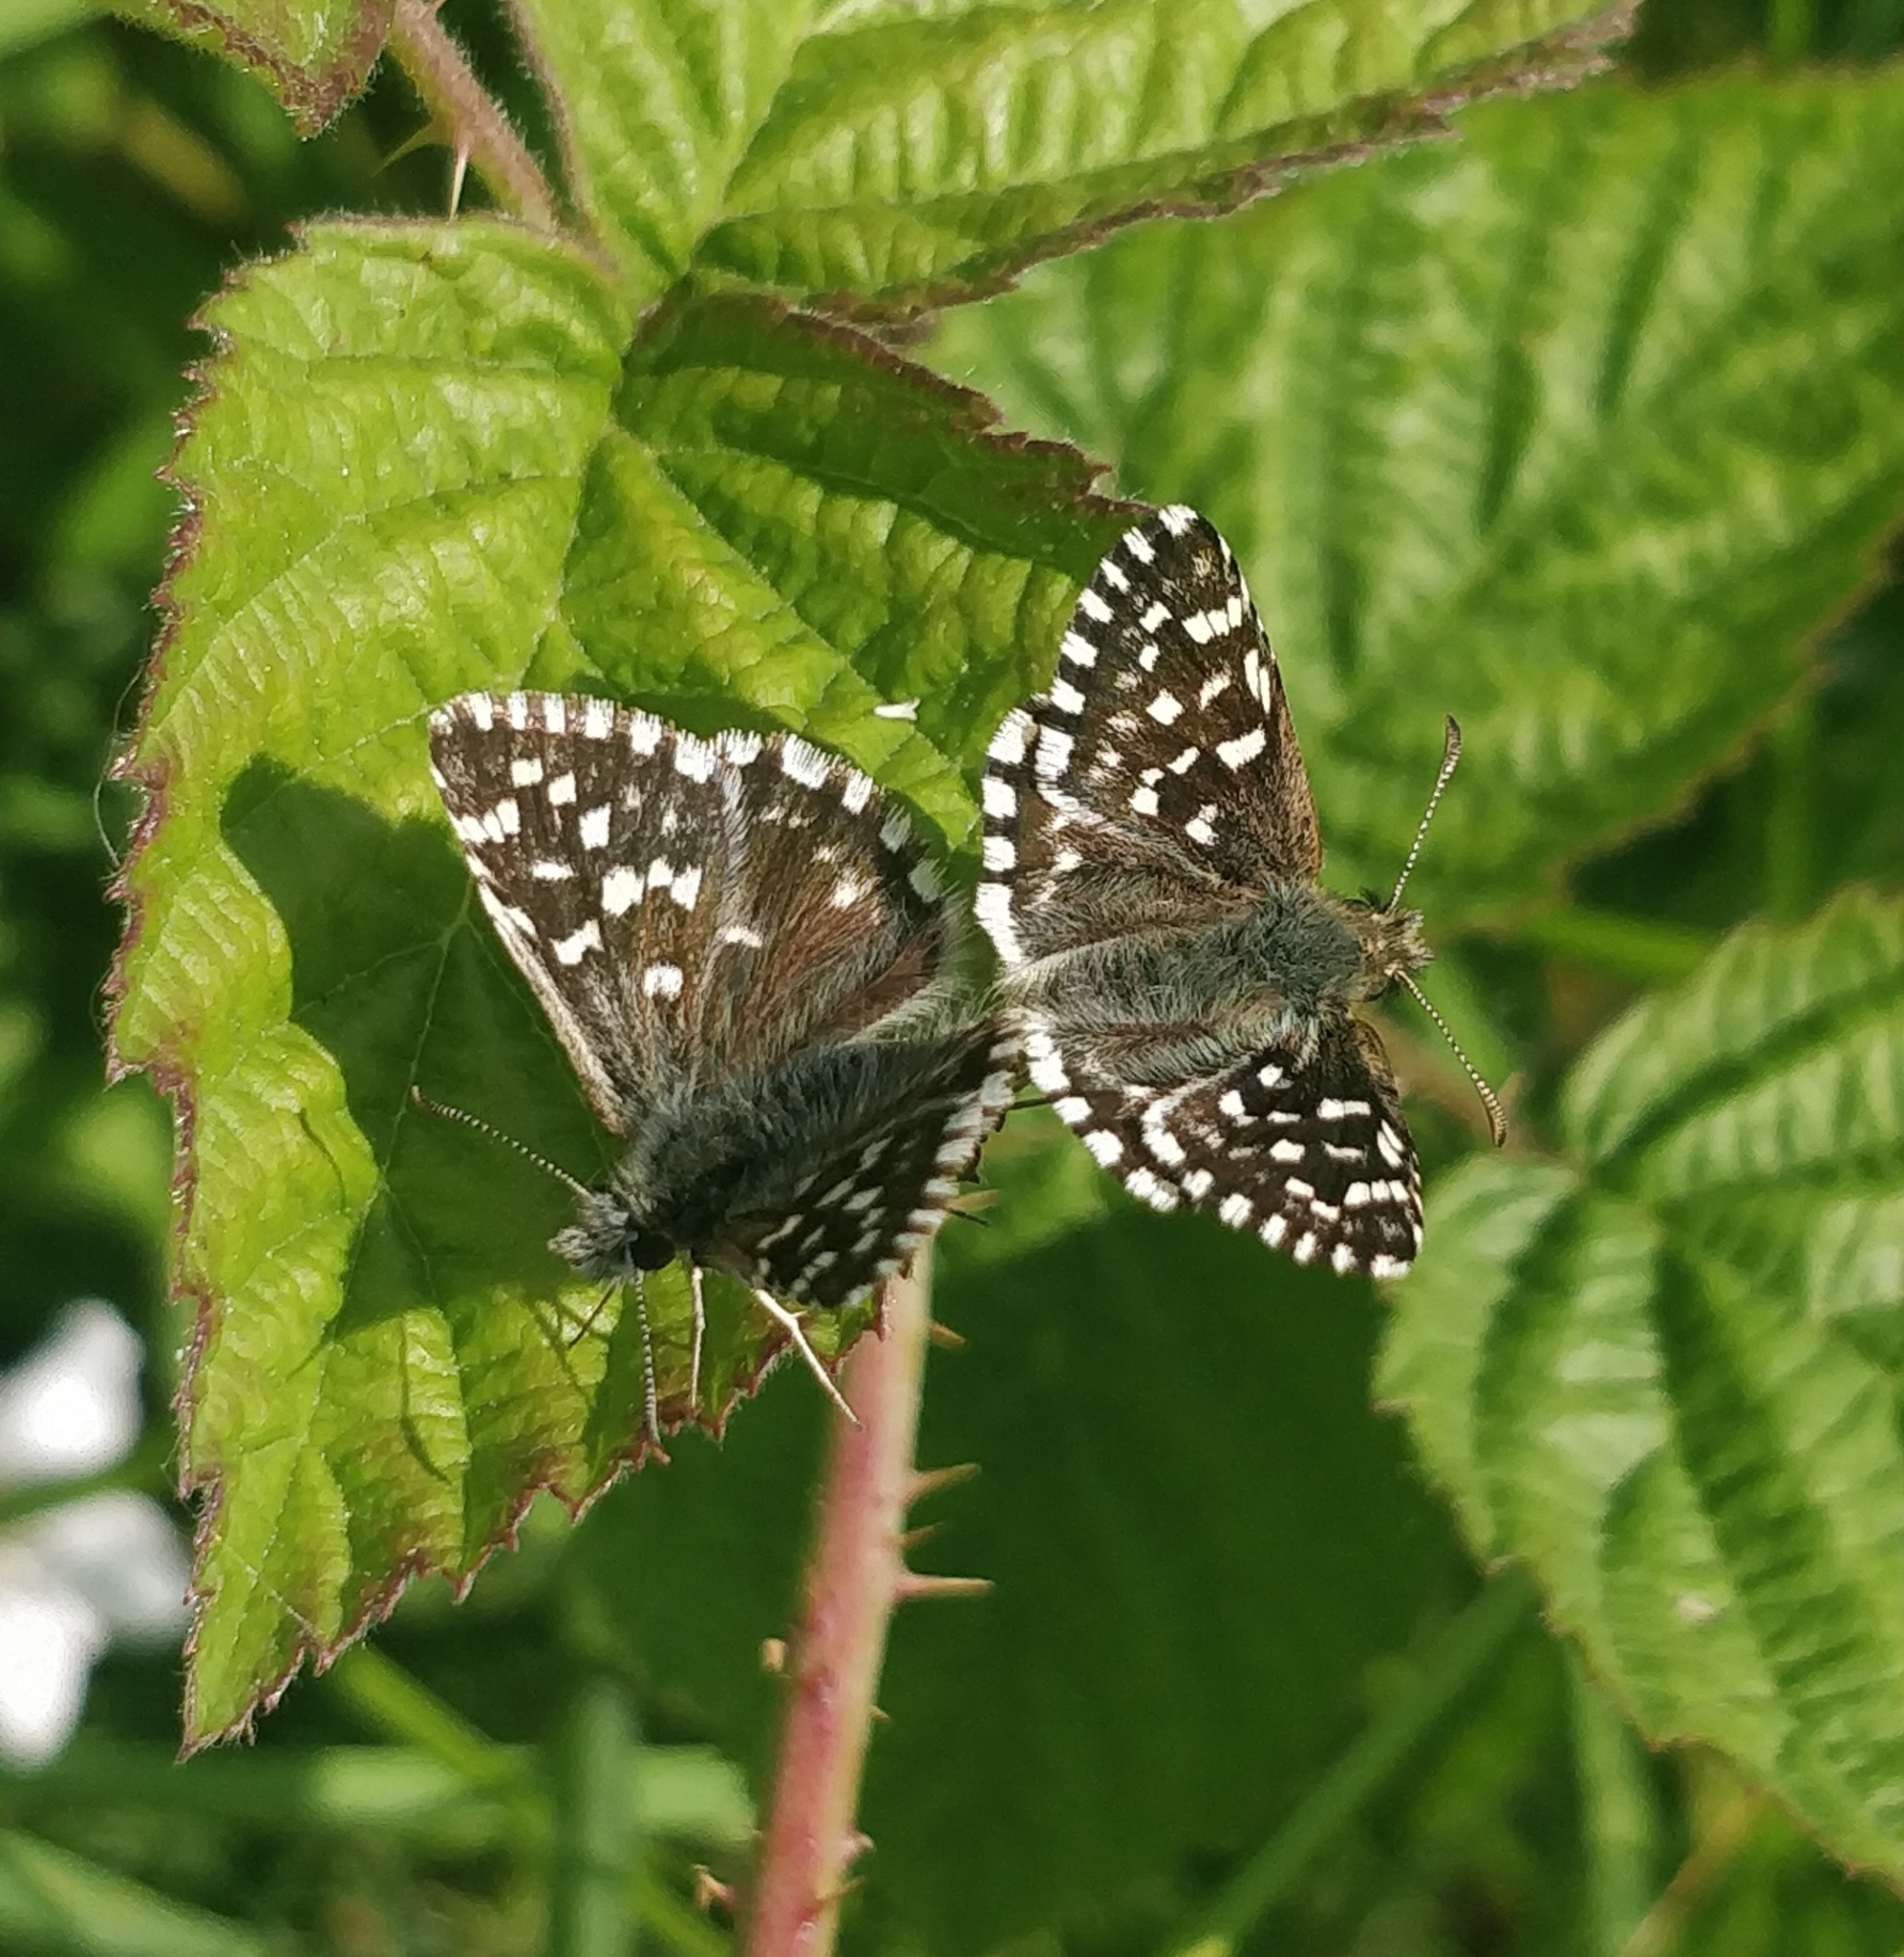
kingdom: Animalia
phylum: Arthropoda
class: Insecta
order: Lepidoptera
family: Hesperiidae
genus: Pyrgus
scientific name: Pyrgus malvae
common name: Grizzled skipper
